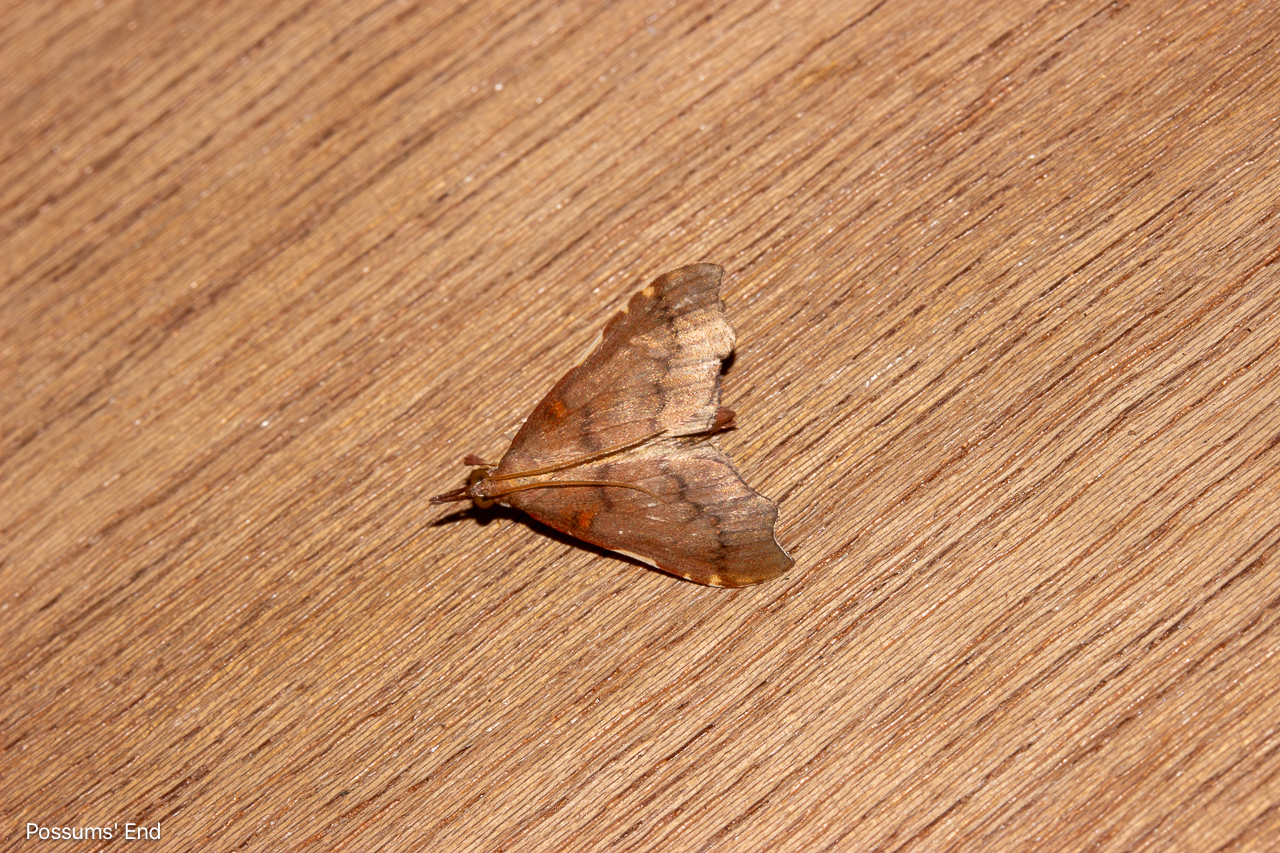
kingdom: Animalia
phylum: Arthropoda
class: Insecta
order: Lepidoptera
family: Crambidae
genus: Deana
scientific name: Deana hybreasalis
